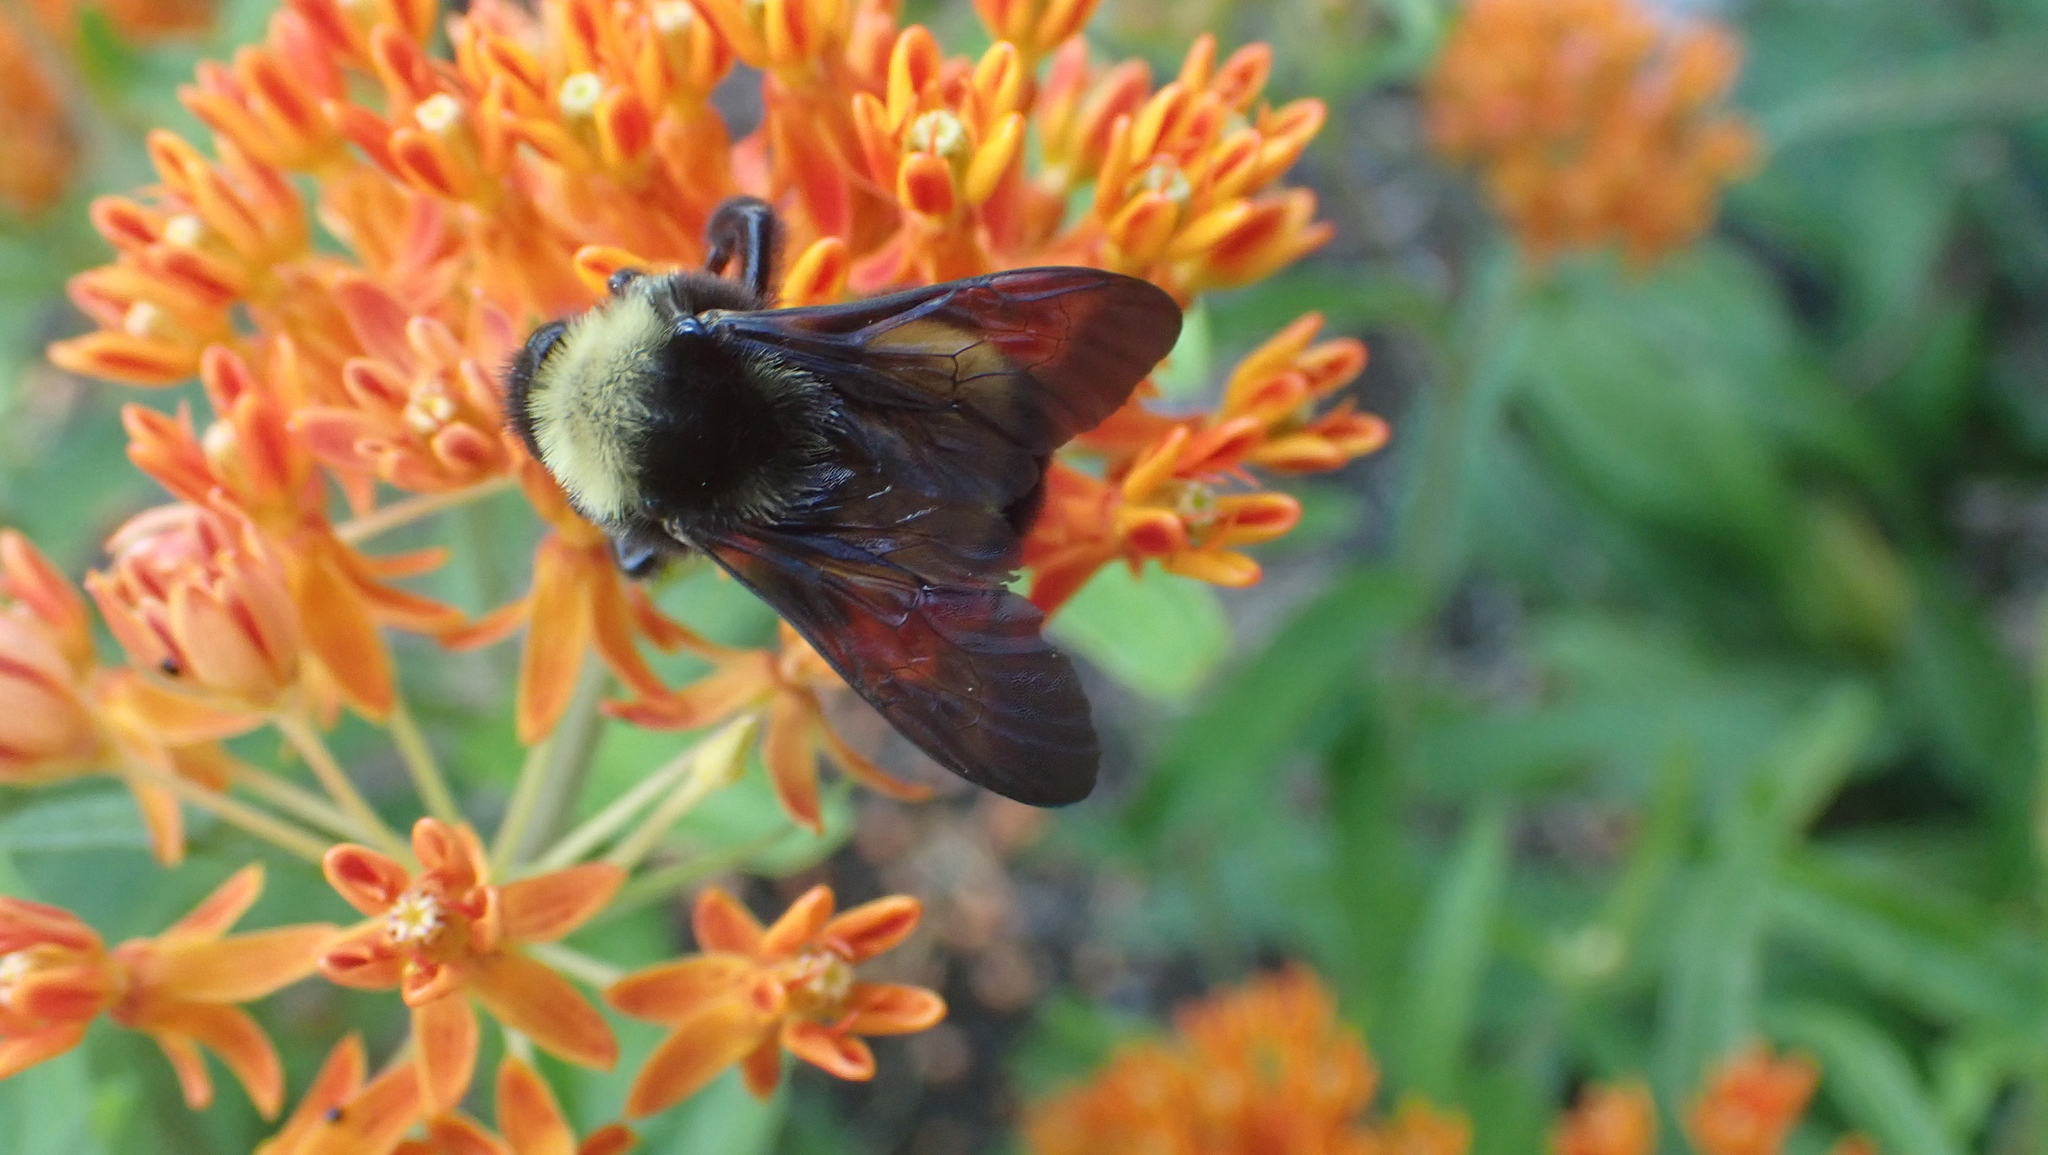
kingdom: Animalia
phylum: Arthropoda
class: Insecta
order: Hymenoptera
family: Apidae
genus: Bombus
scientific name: Bombus pensylvanicus
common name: Bumble bee
